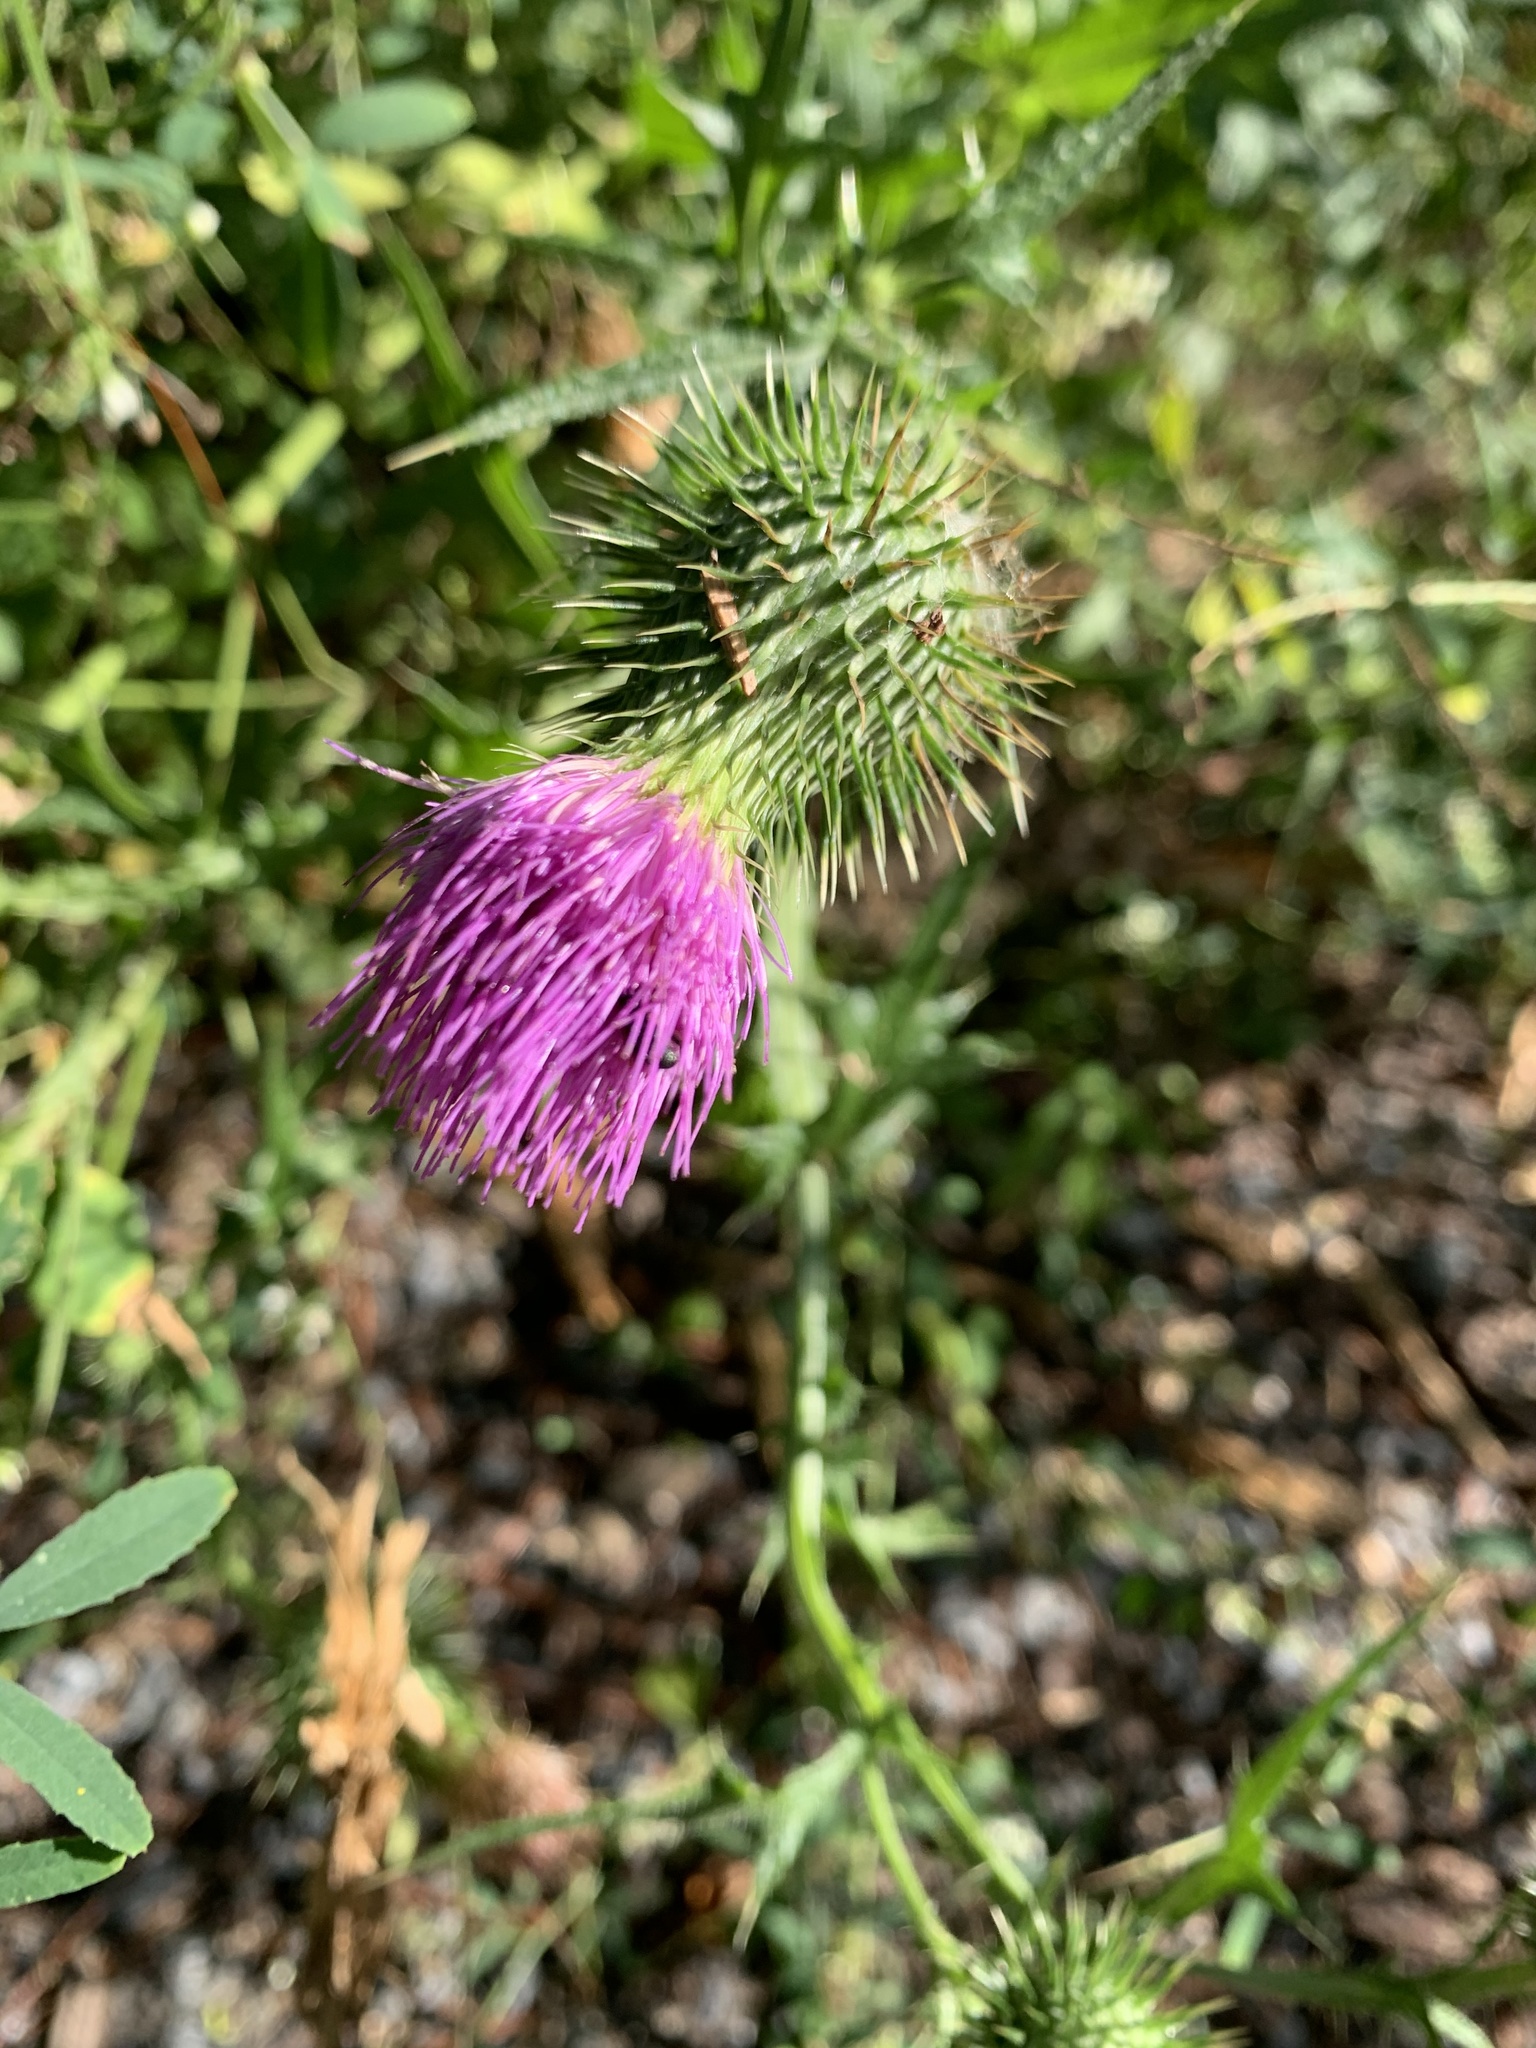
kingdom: Plantae
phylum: Tracheophyta
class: Magnoliopsida
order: Asterales
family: Asteraceae
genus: Cirsium
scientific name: Cirsium vulgare
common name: Bull thistle
